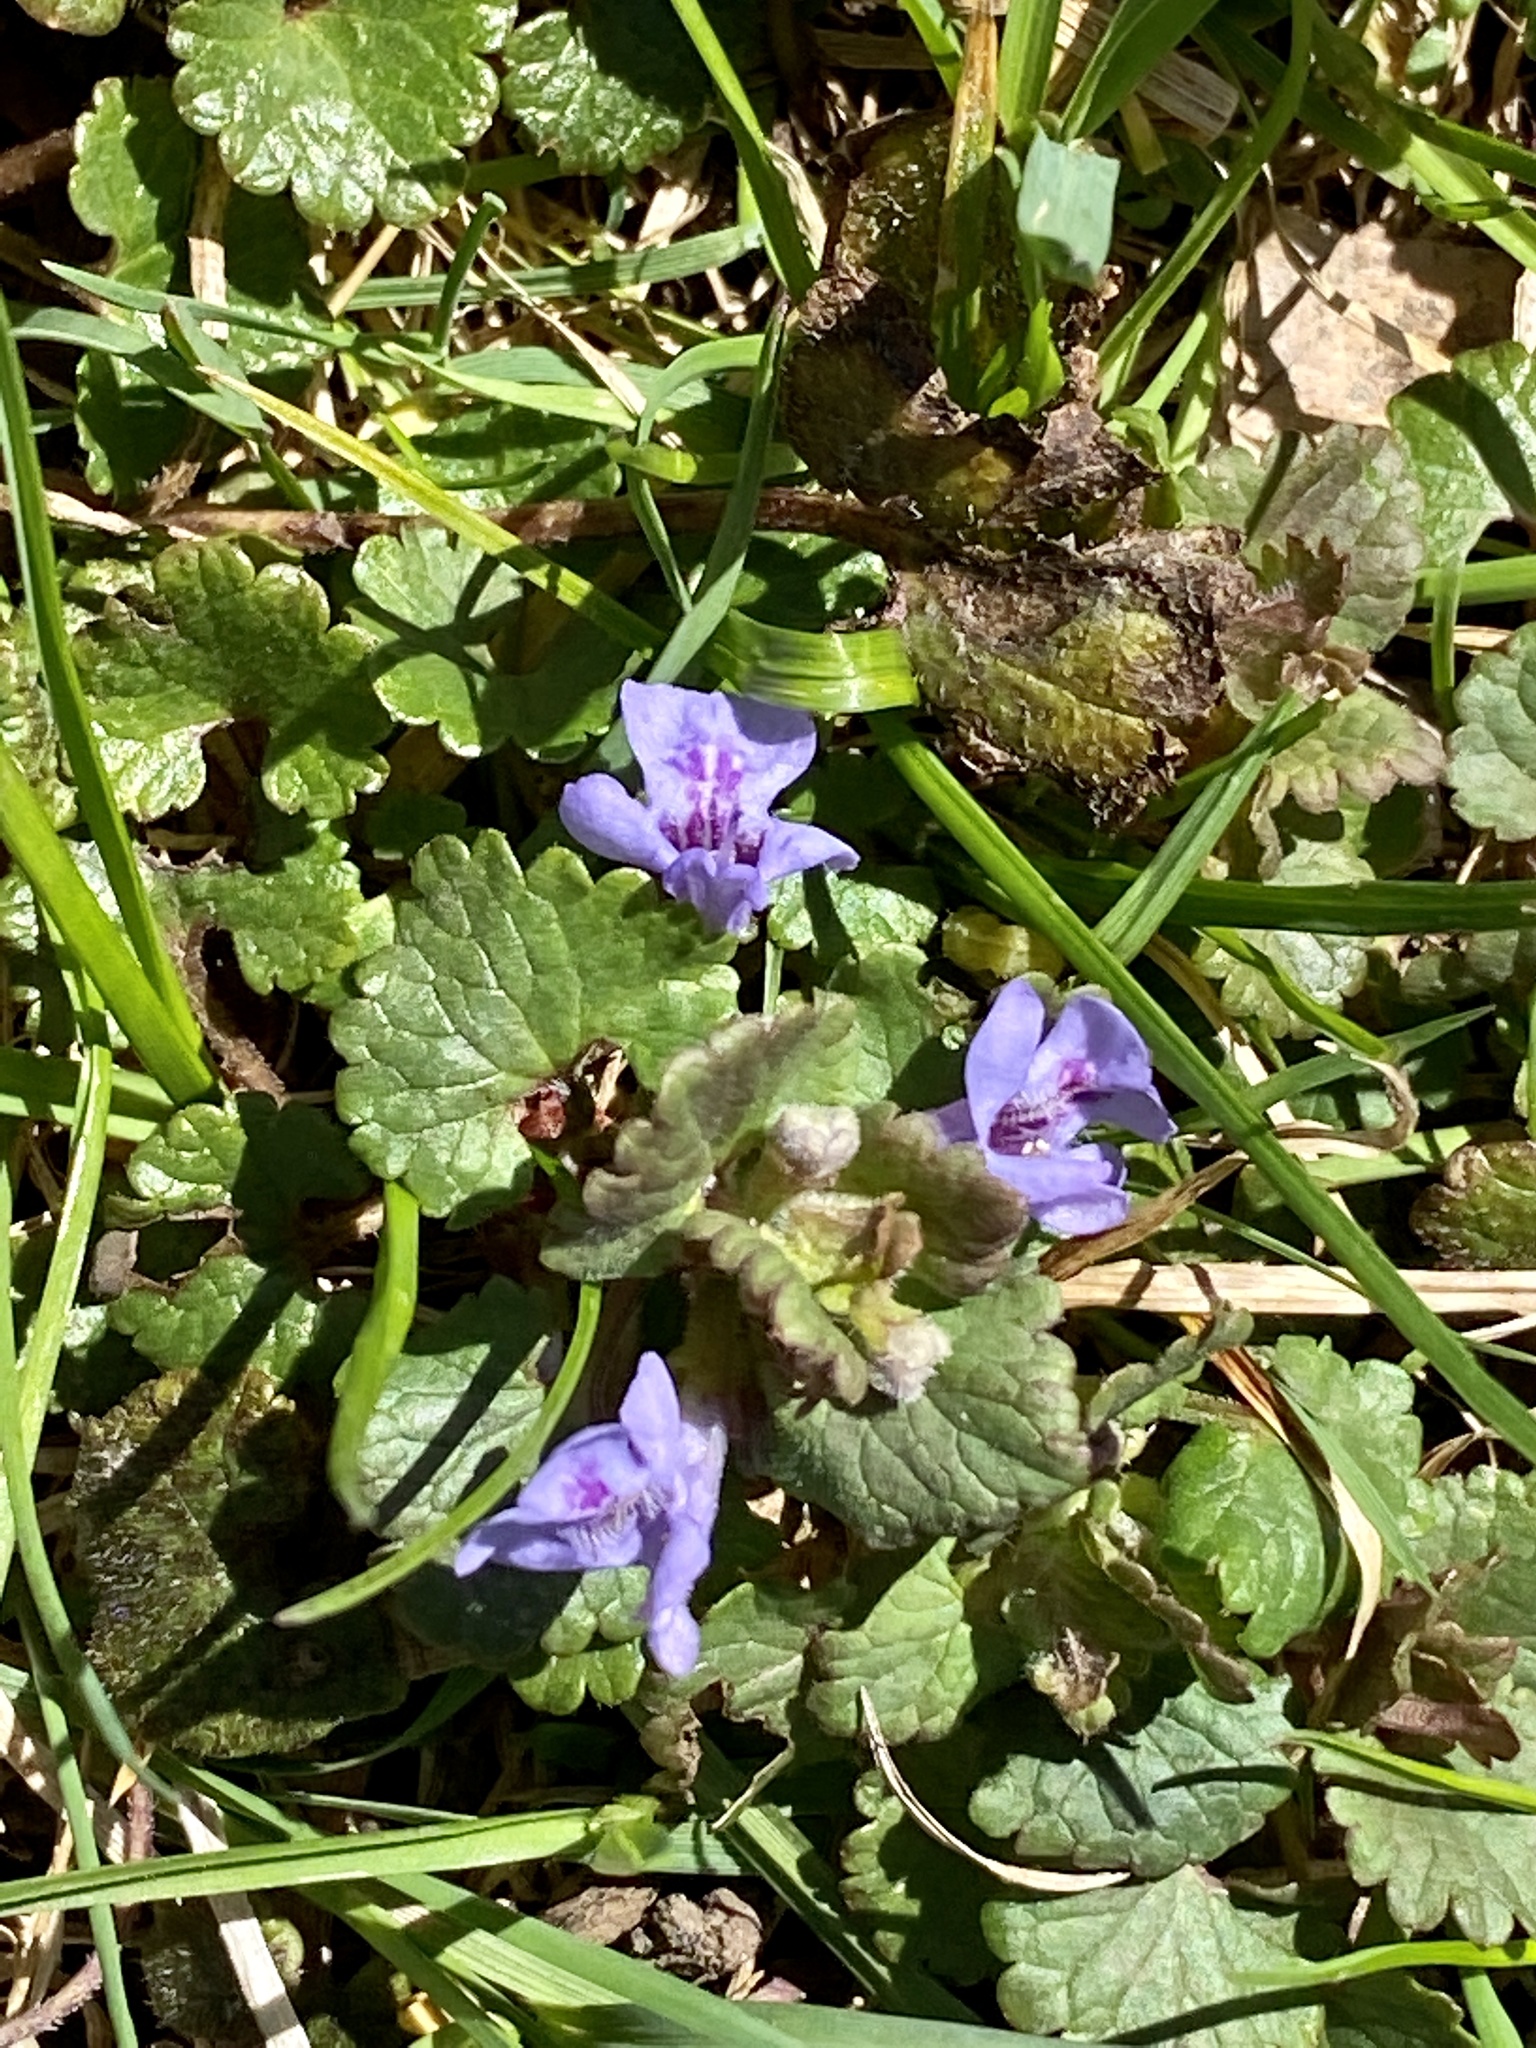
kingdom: Plantae
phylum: Tracheophyta
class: Magnoliopsida
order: Lamiales
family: Lamiaceae
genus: Glechoma
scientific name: Glechoma hederacea
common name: Ground ivy
